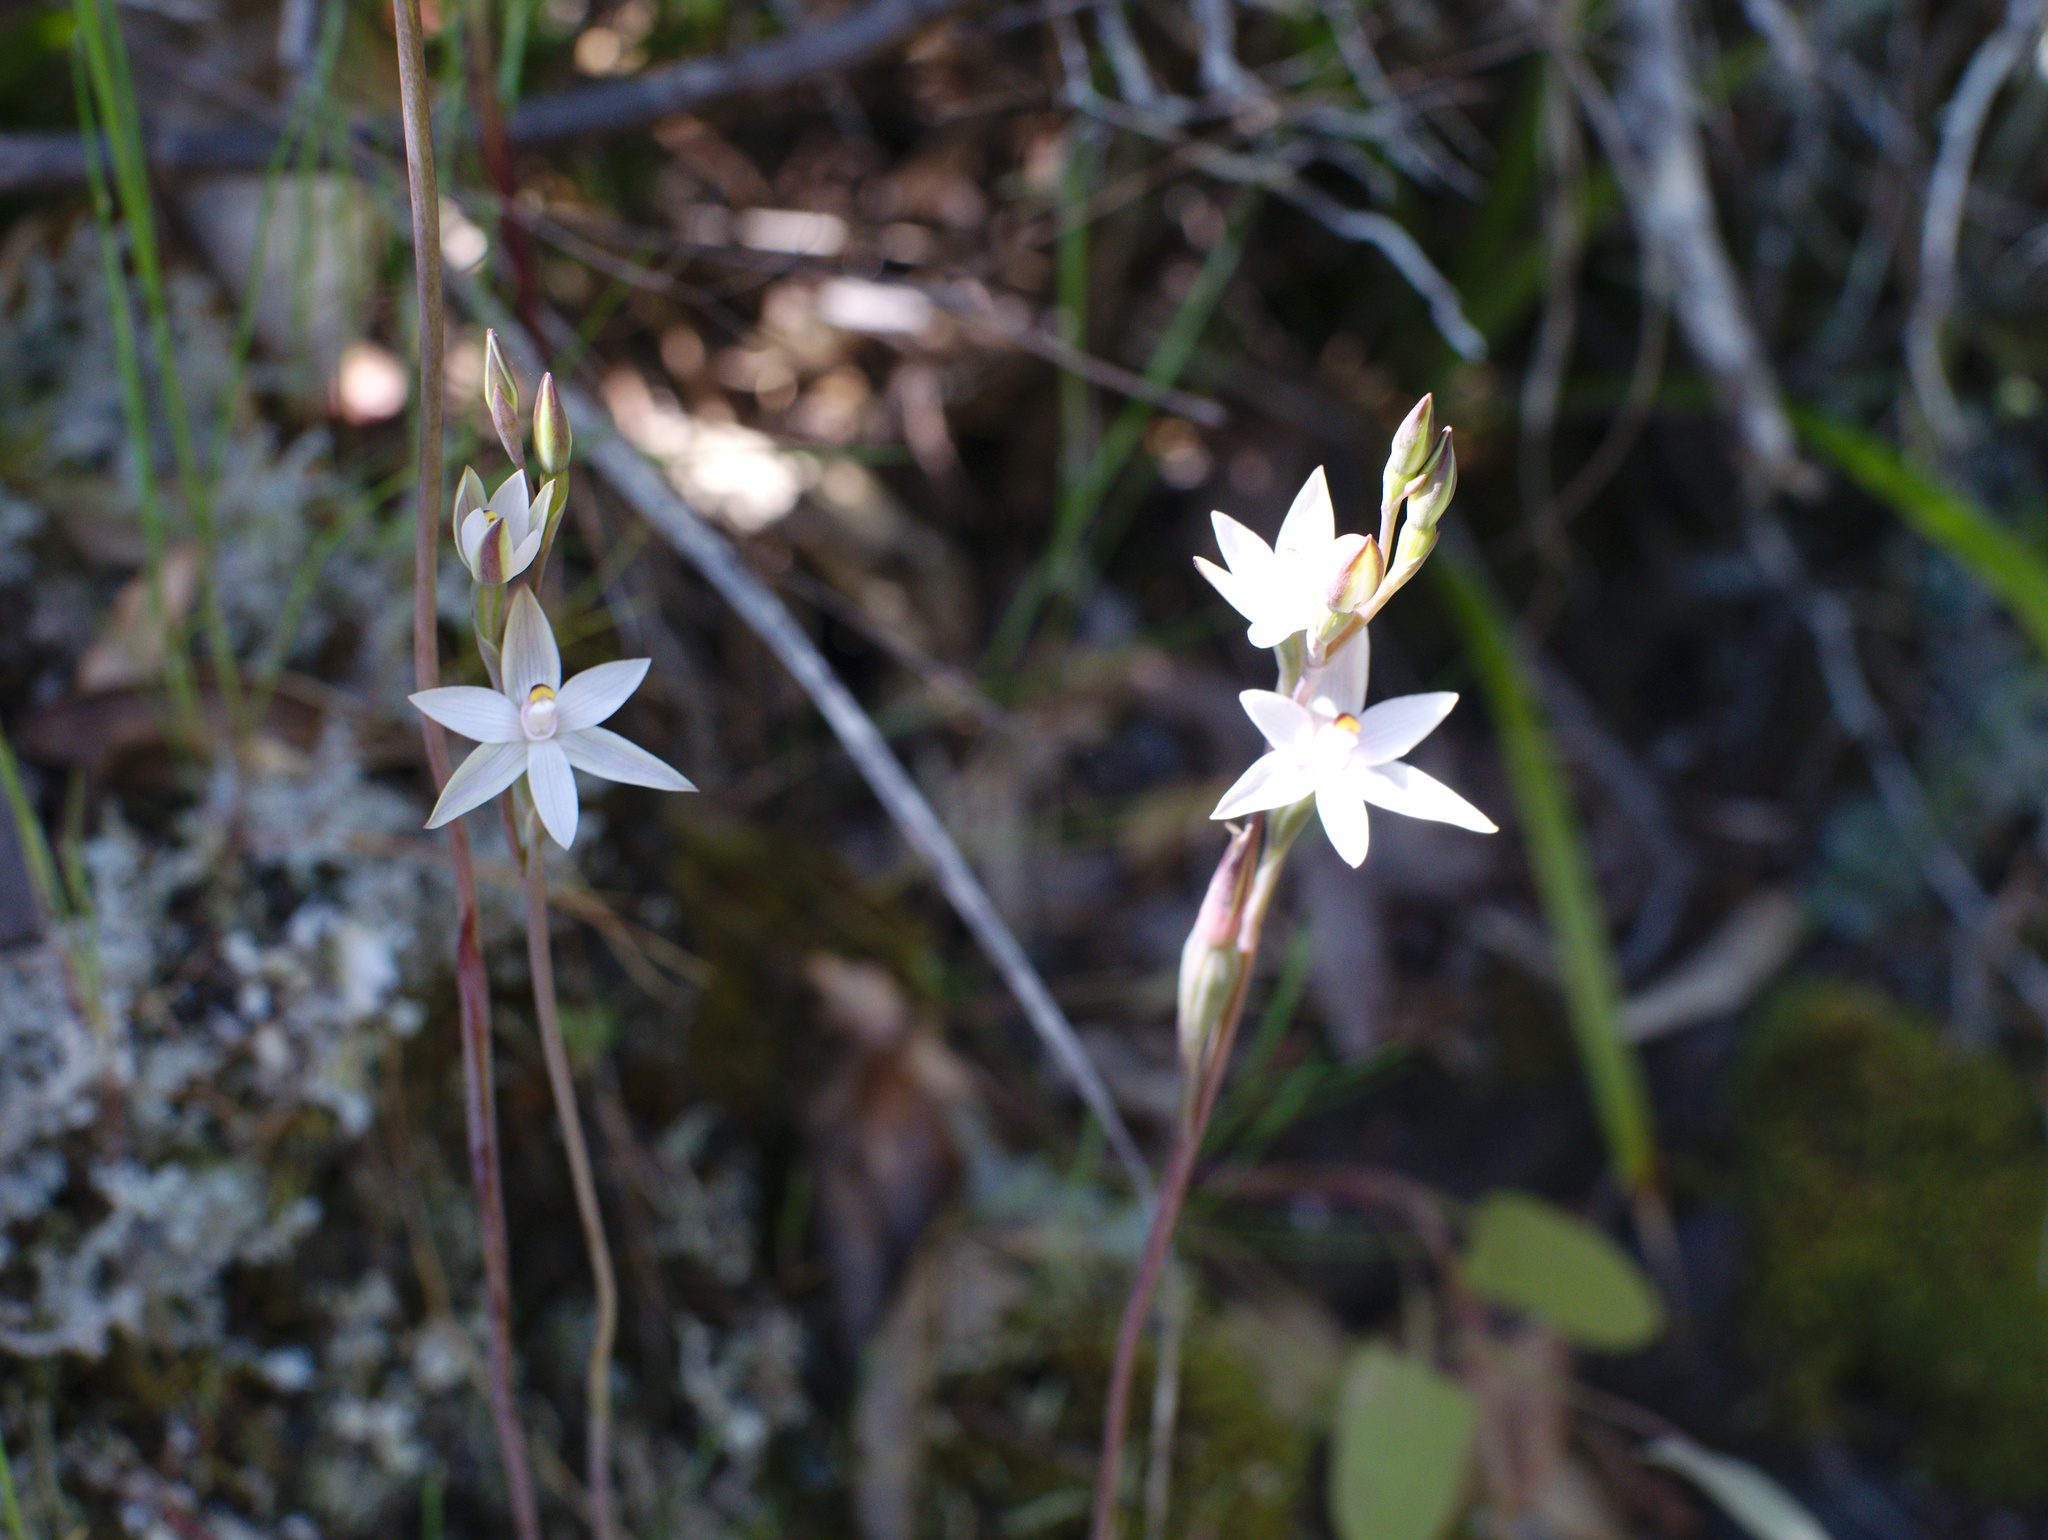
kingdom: Plantae
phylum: Tracheophyta
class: Liliopsida
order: Asparagales
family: Orchidaceae
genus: Thelymitra
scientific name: Thelymitra longifolia
